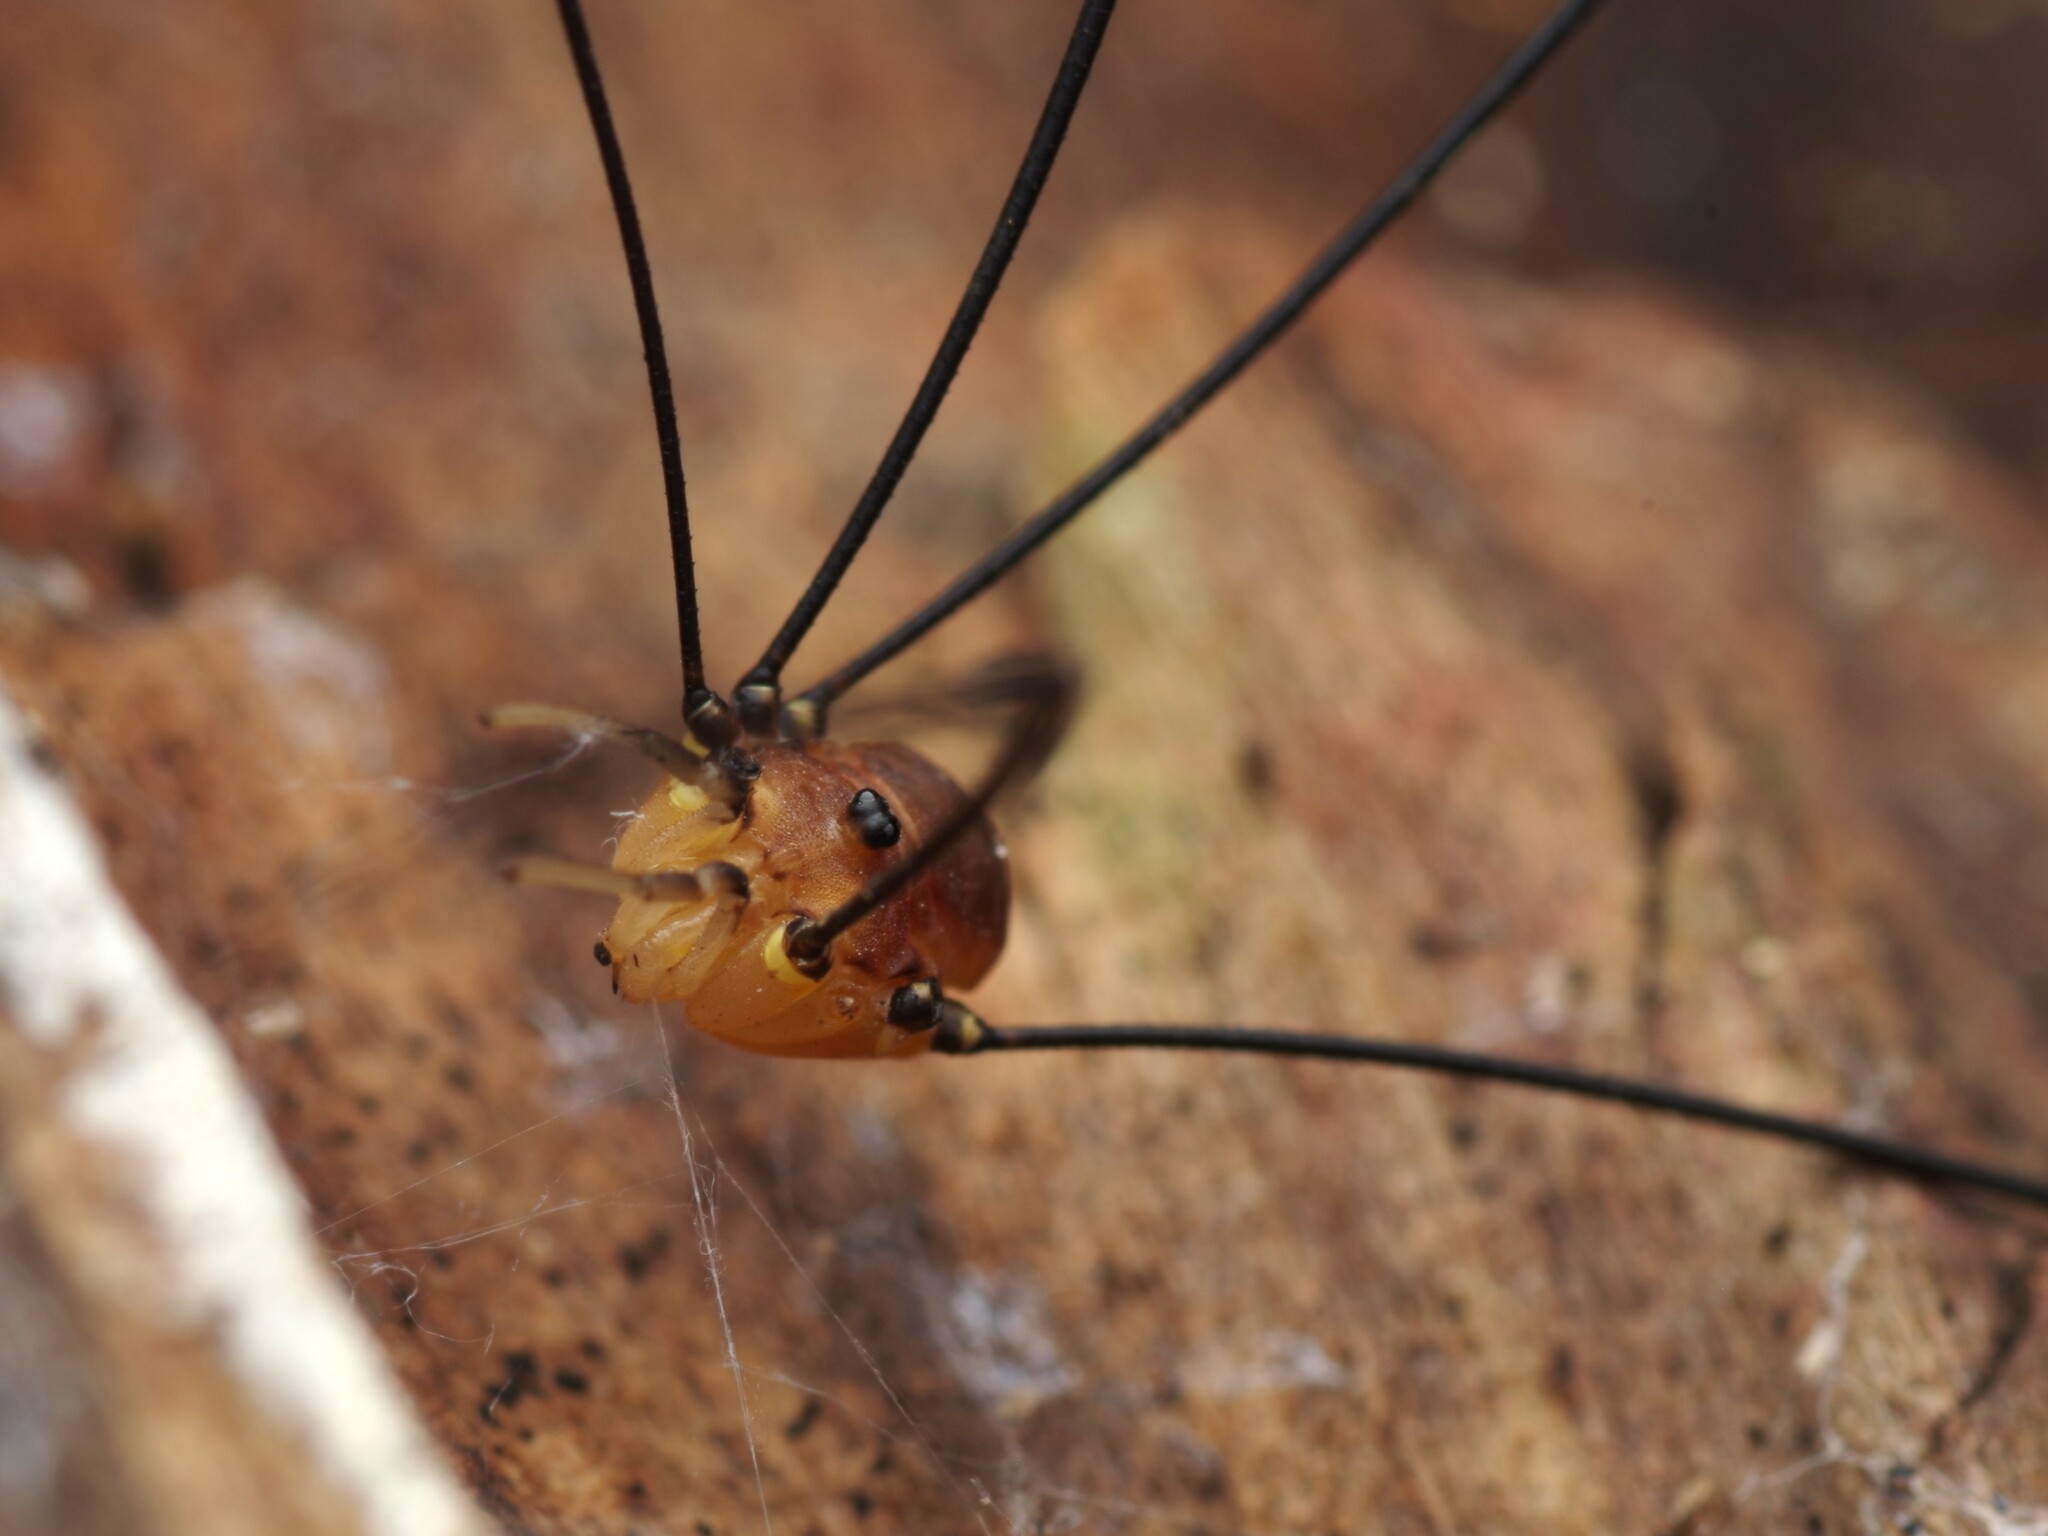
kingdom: Animalia
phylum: Arthropoda
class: Arachnida
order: Opiliones
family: Sclerosomatidae
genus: Leiobunum
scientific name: Leiobunum rotundum
